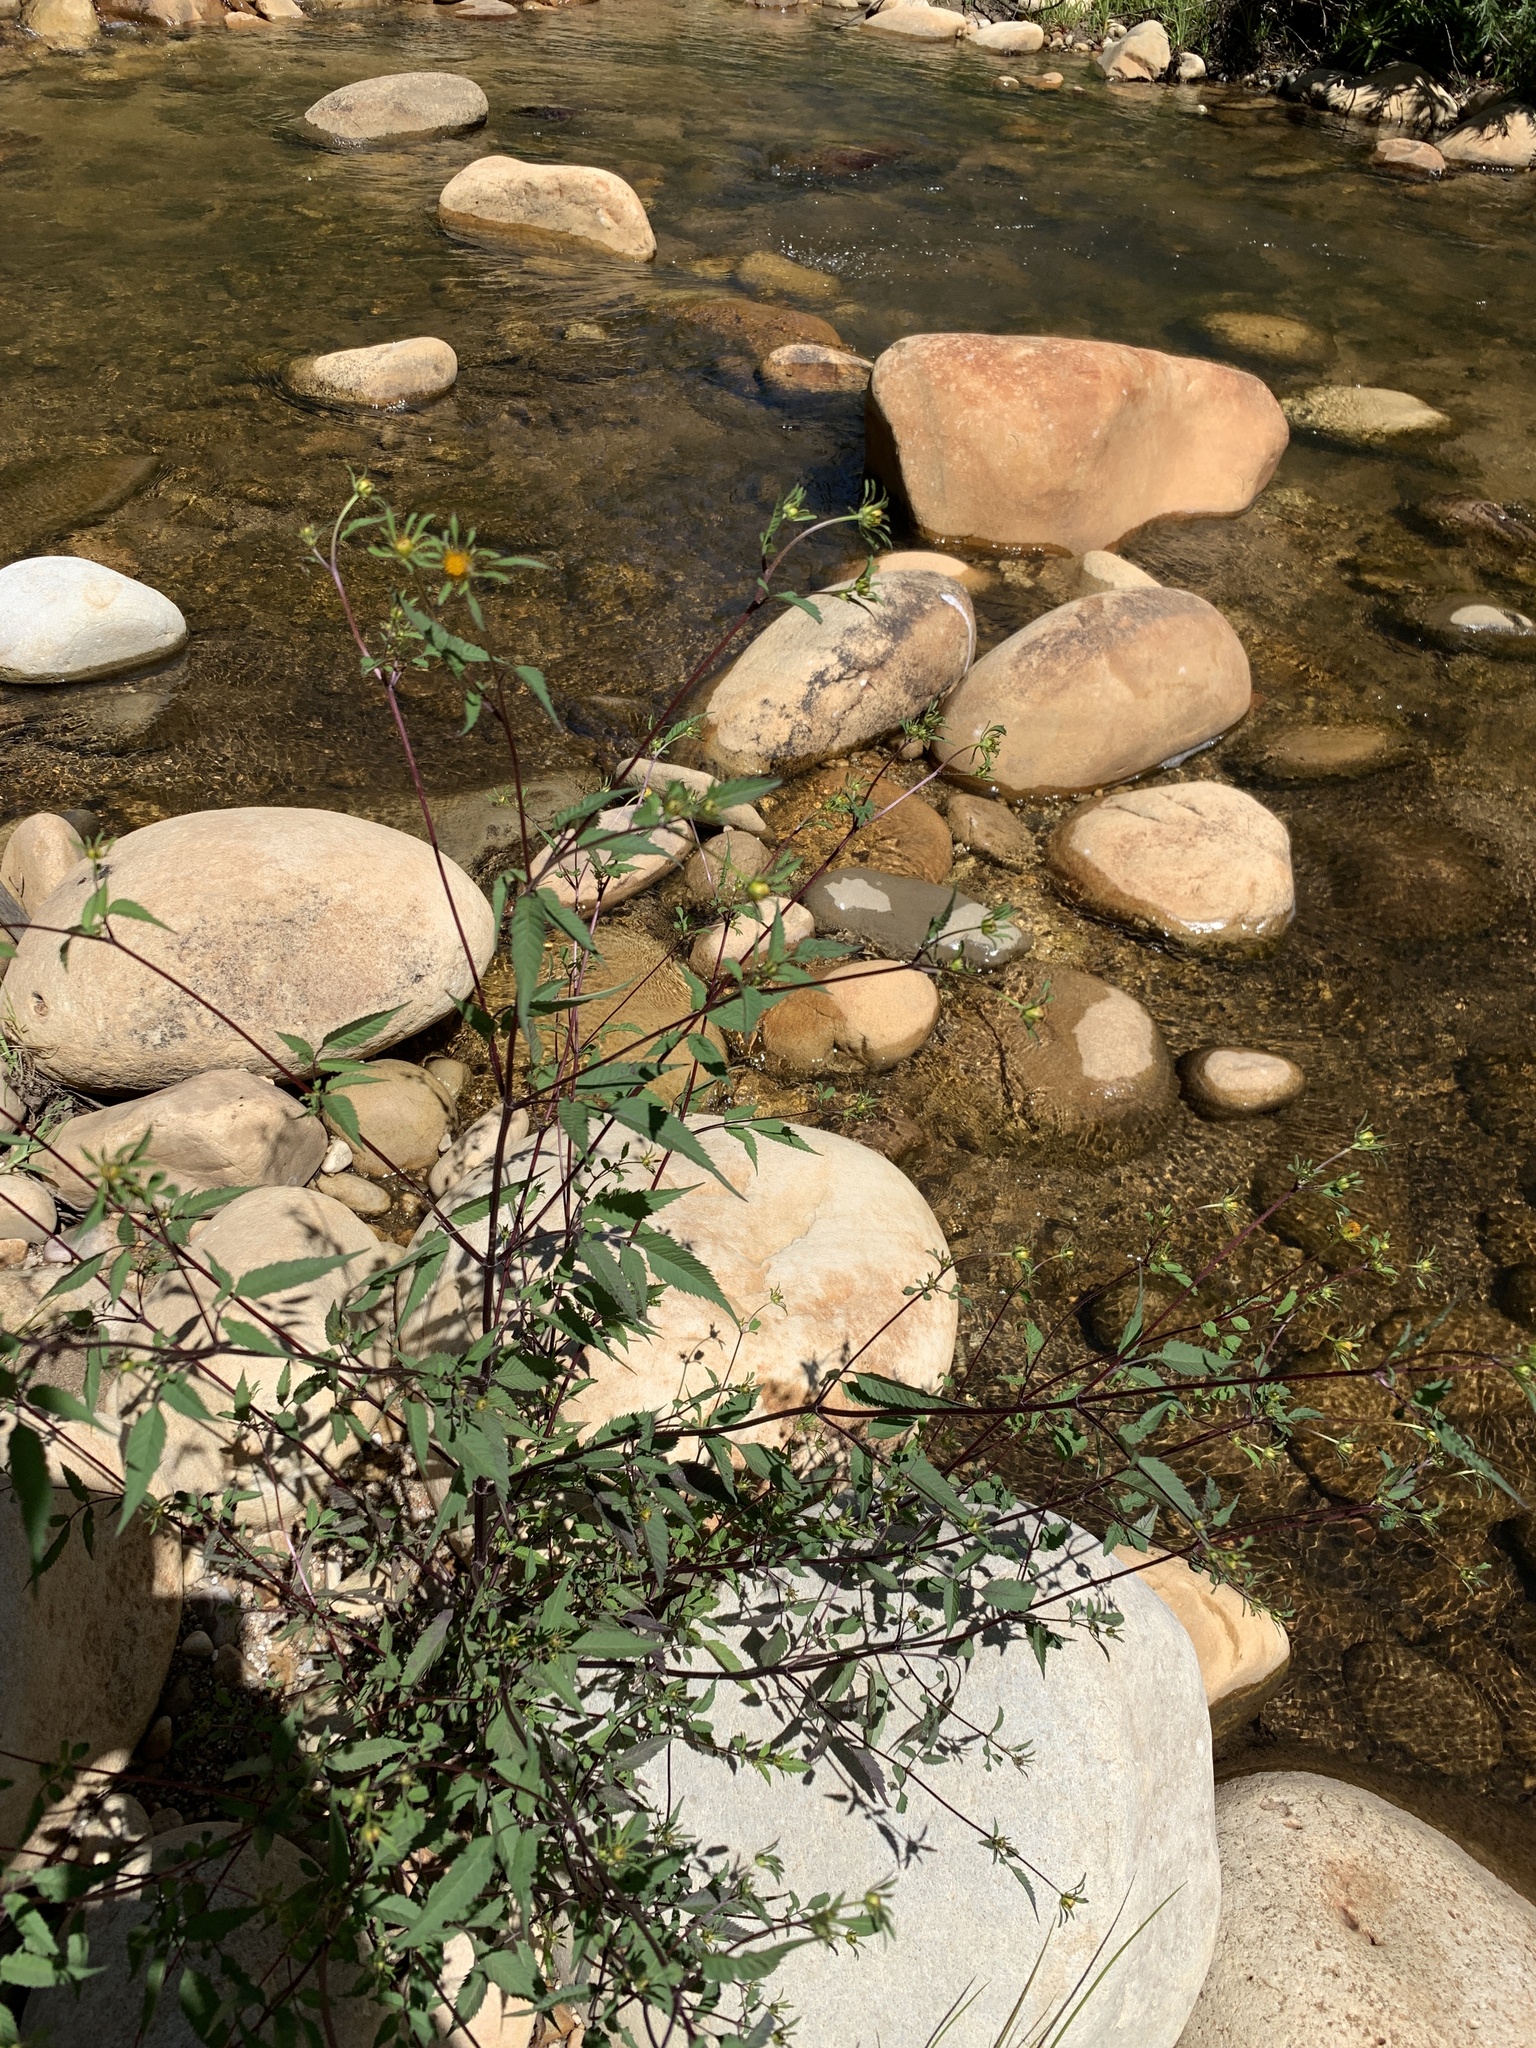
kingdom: Plantae
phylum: Tracheophyta
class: Magnoliopsida
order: Asterales
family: Asteraceae
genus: Bidens
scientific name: Bidens frondosa
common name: Beggarticks
